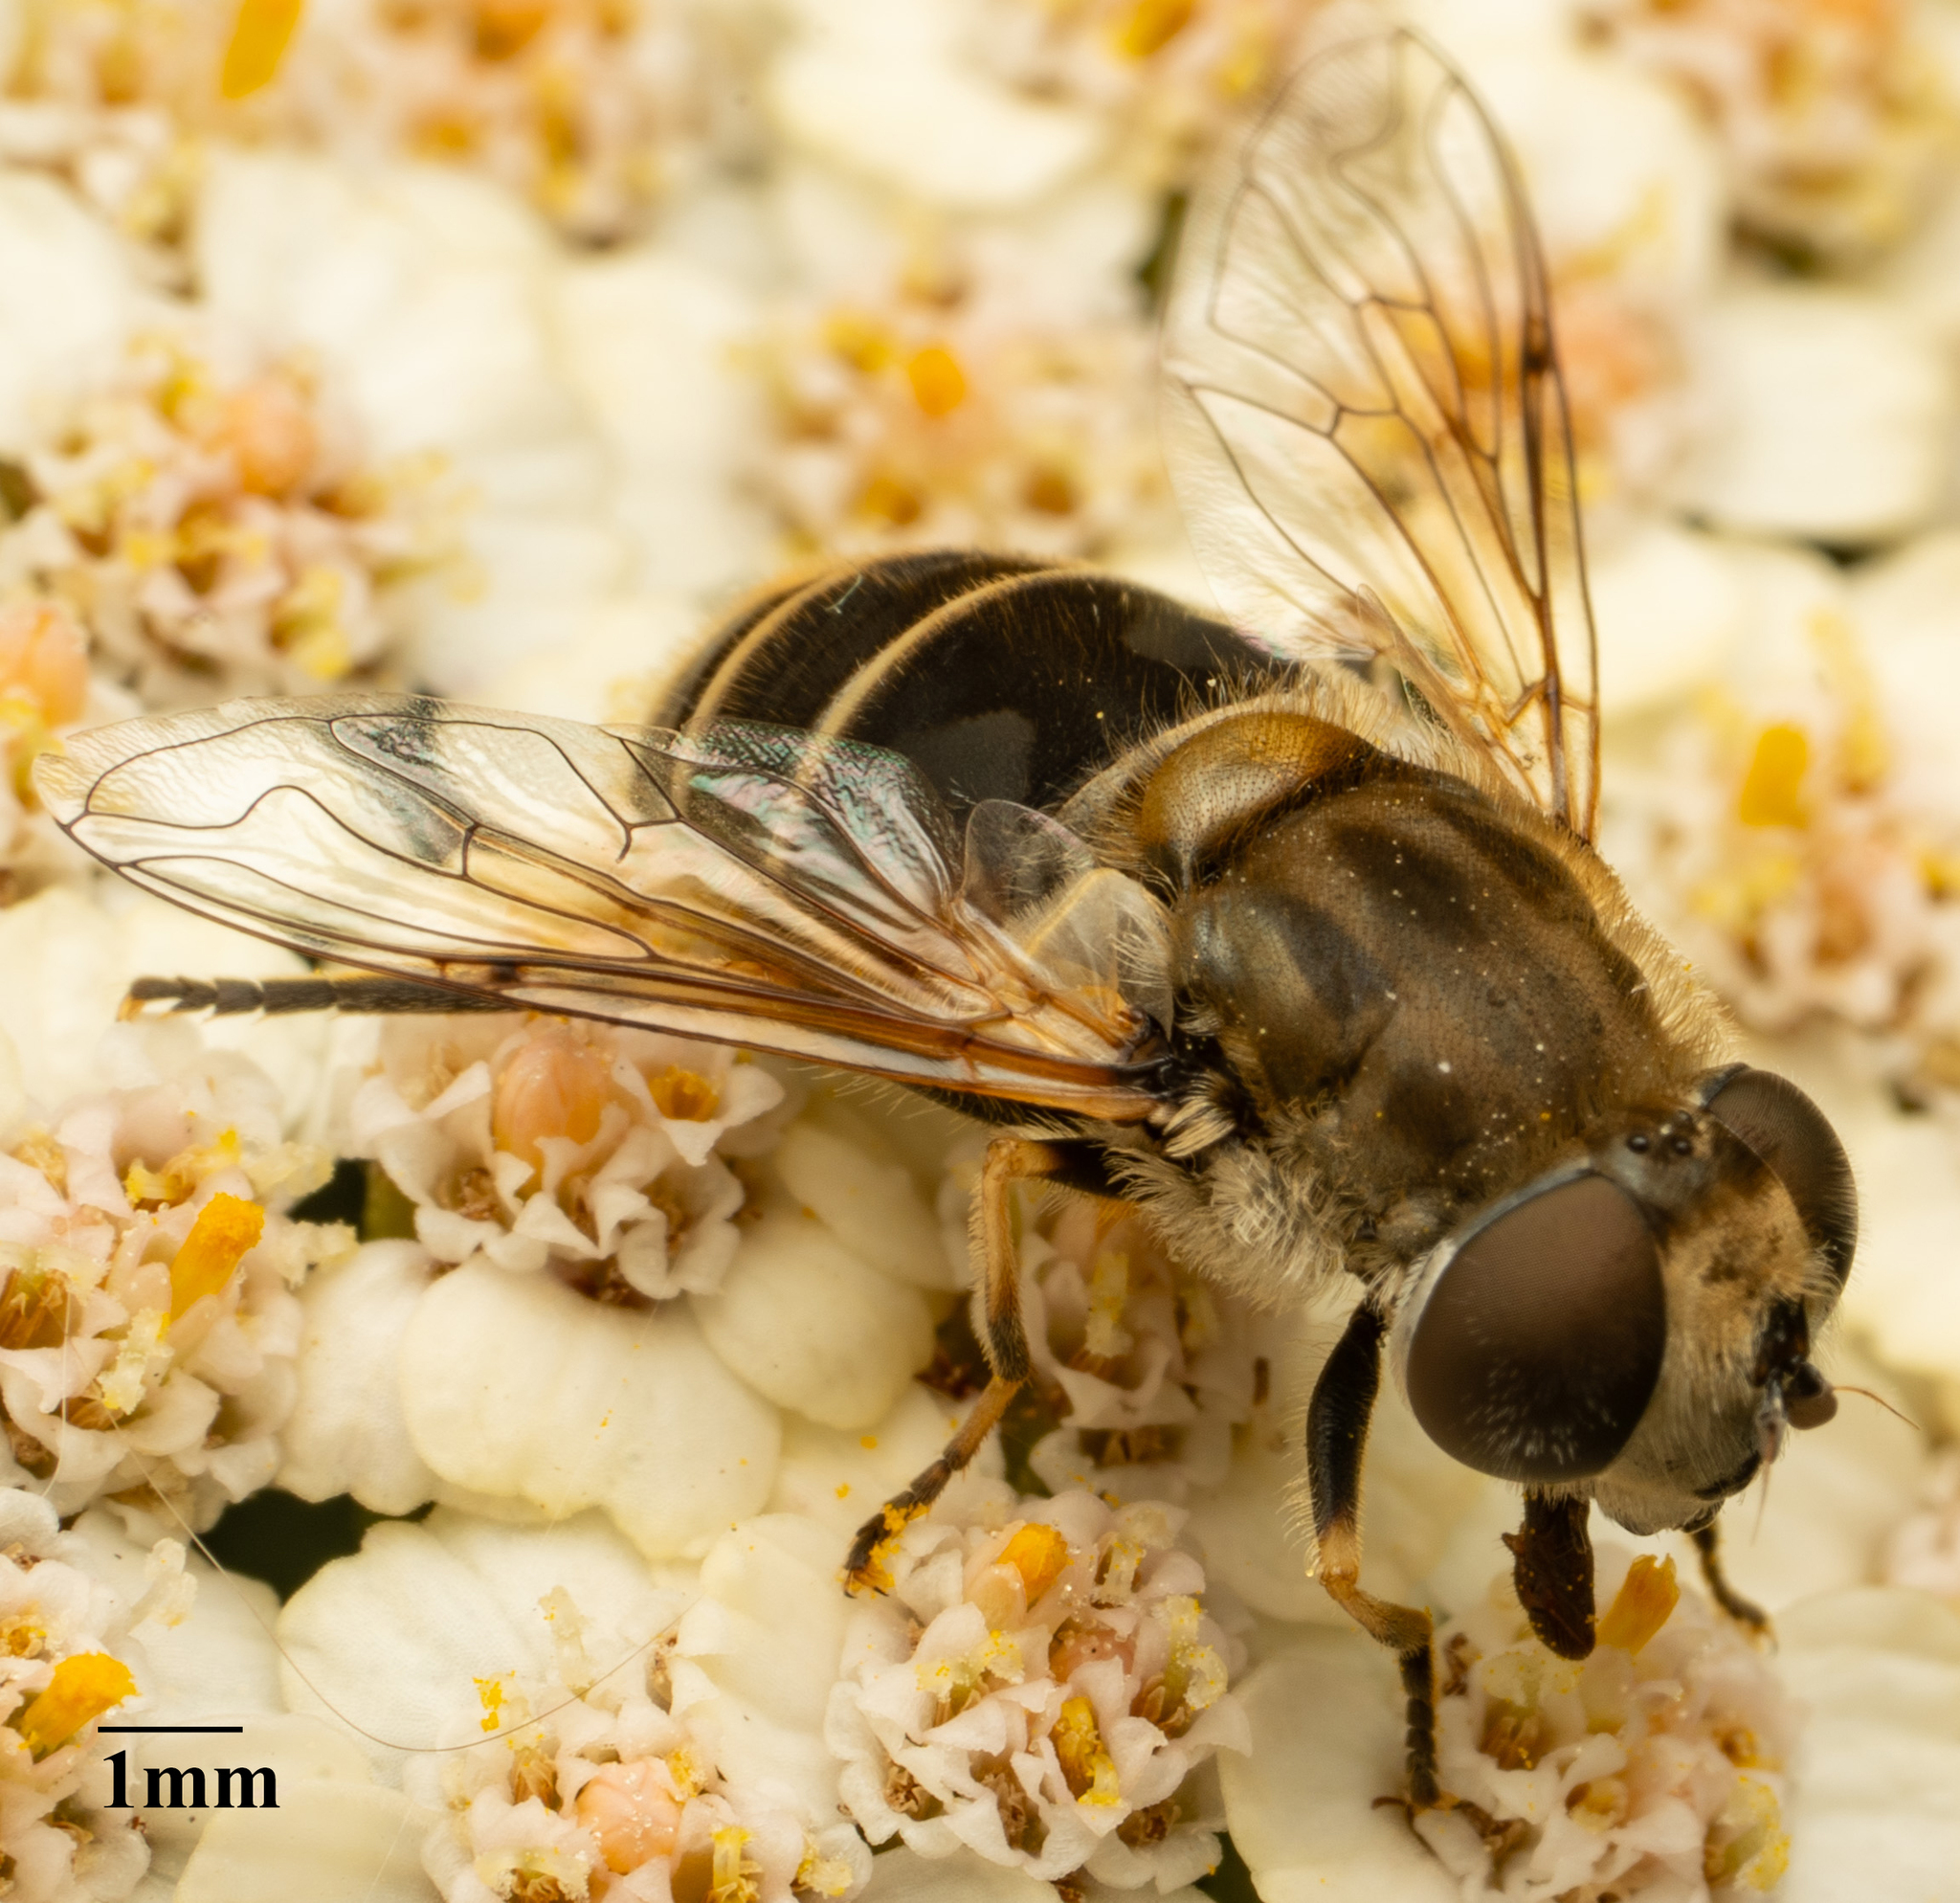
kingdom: Animalia
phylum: Arthropoda
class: Insecta
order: Diptera
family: Syrphidae
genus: Eristalis
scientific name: Eristalis arbustorum
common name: Hover fly
